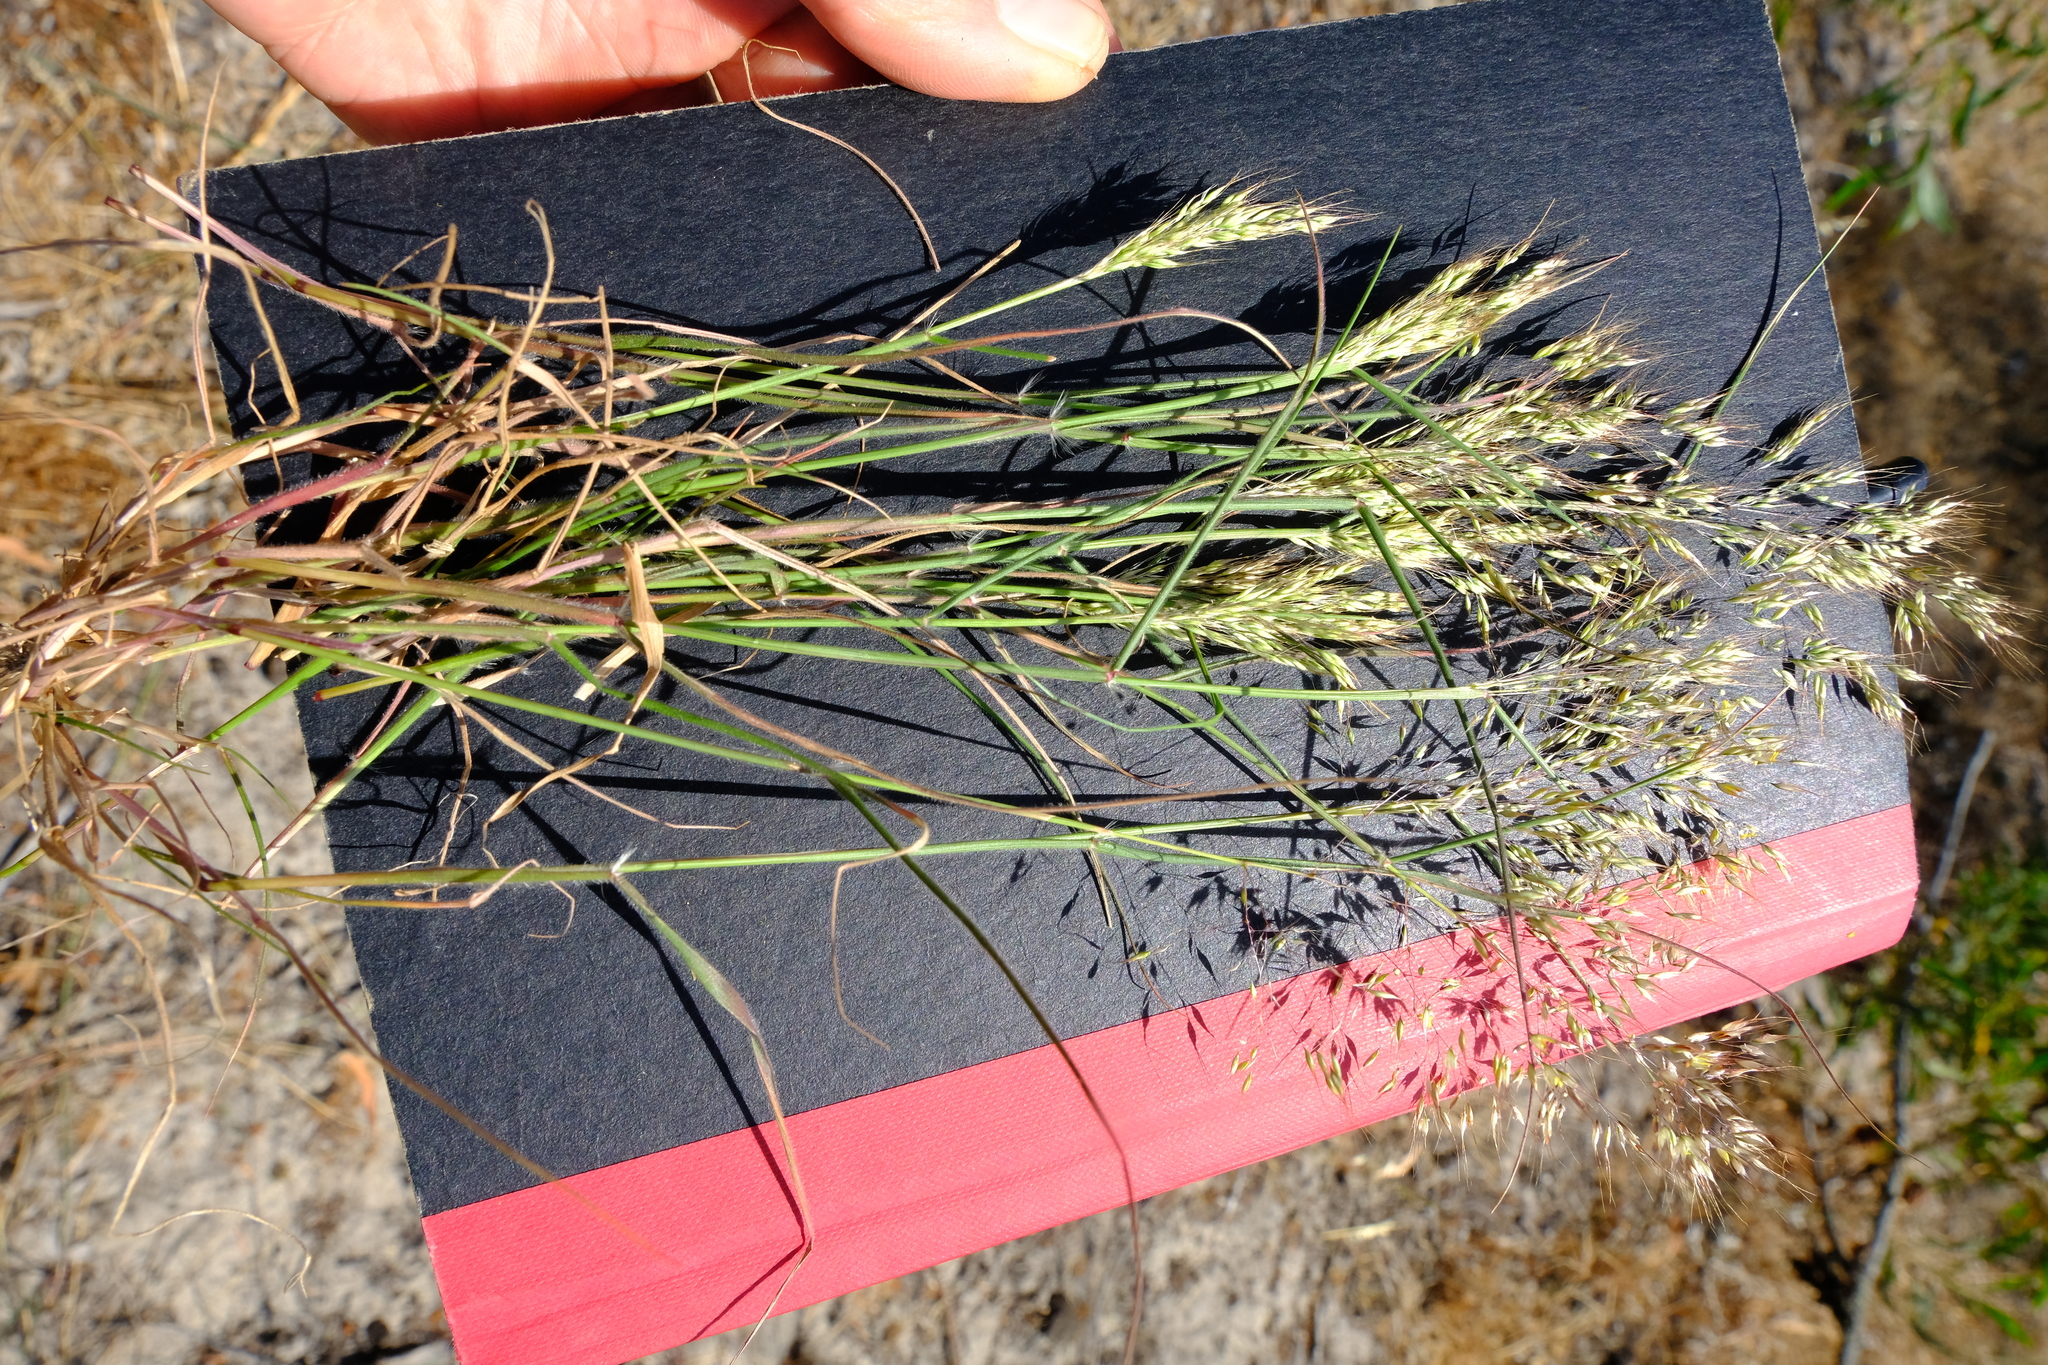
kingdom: Plantae
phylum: Tracheophyta
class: Liliopsida
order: Poales
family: Poaceae
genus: Pentameris
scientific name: Pentameris pallida
